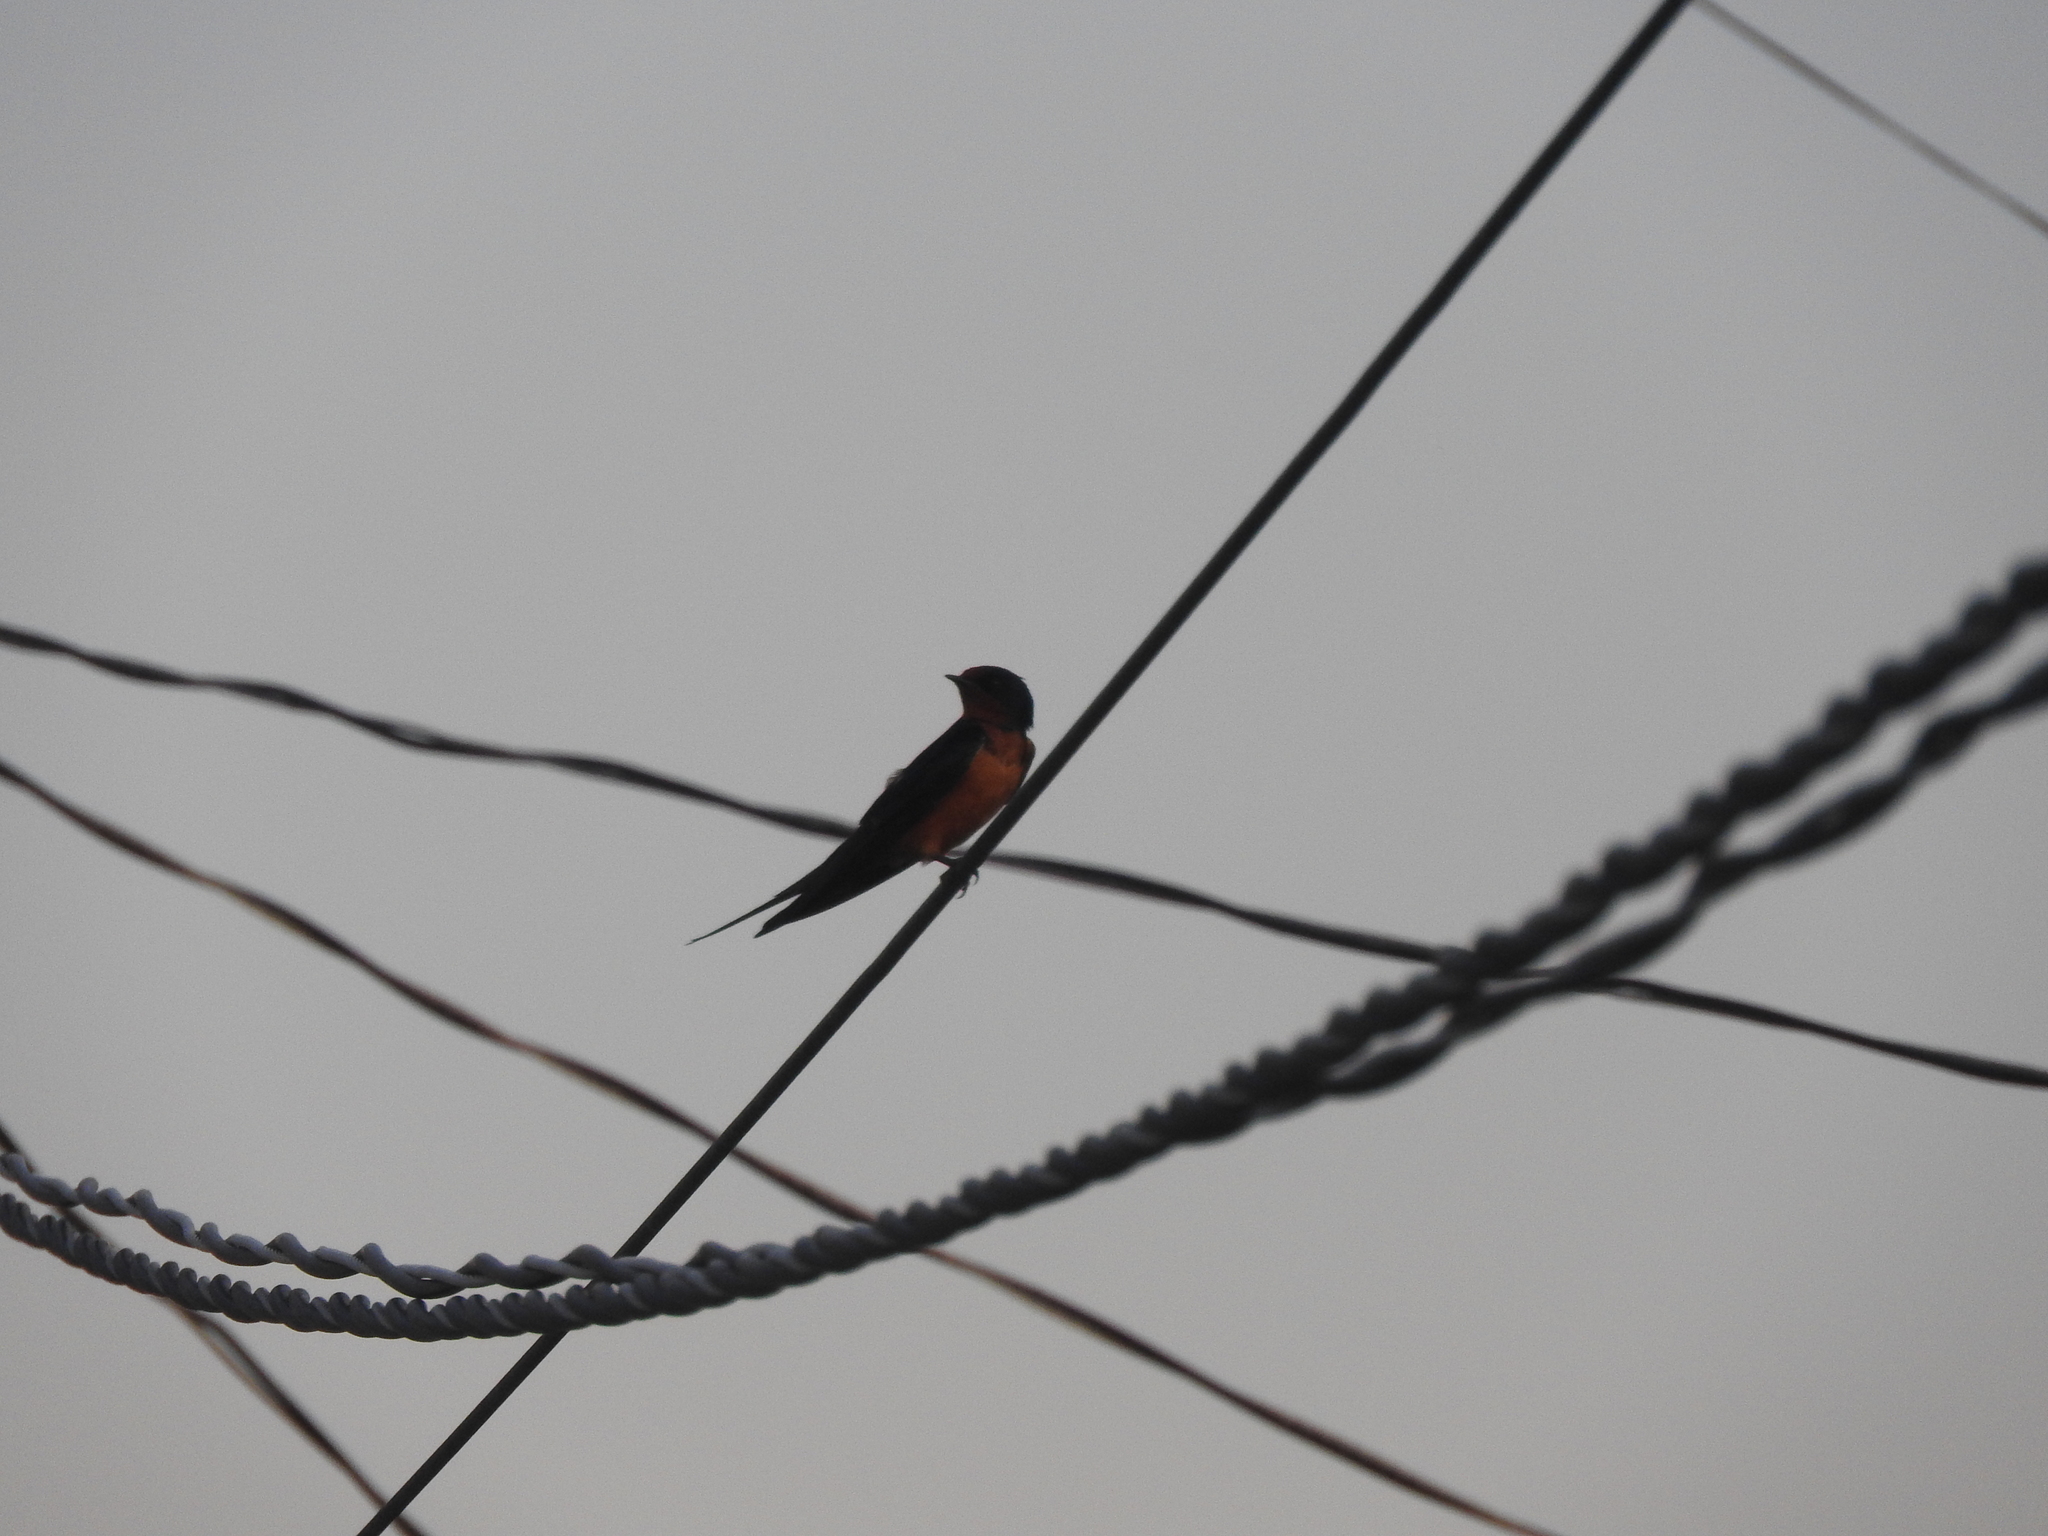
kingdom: Animalia
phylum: Chordata
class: Aves
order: Passeriformes
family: Hirundinidae
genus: Hirundo
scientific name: Hirundo rustica
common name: Barn swallow
